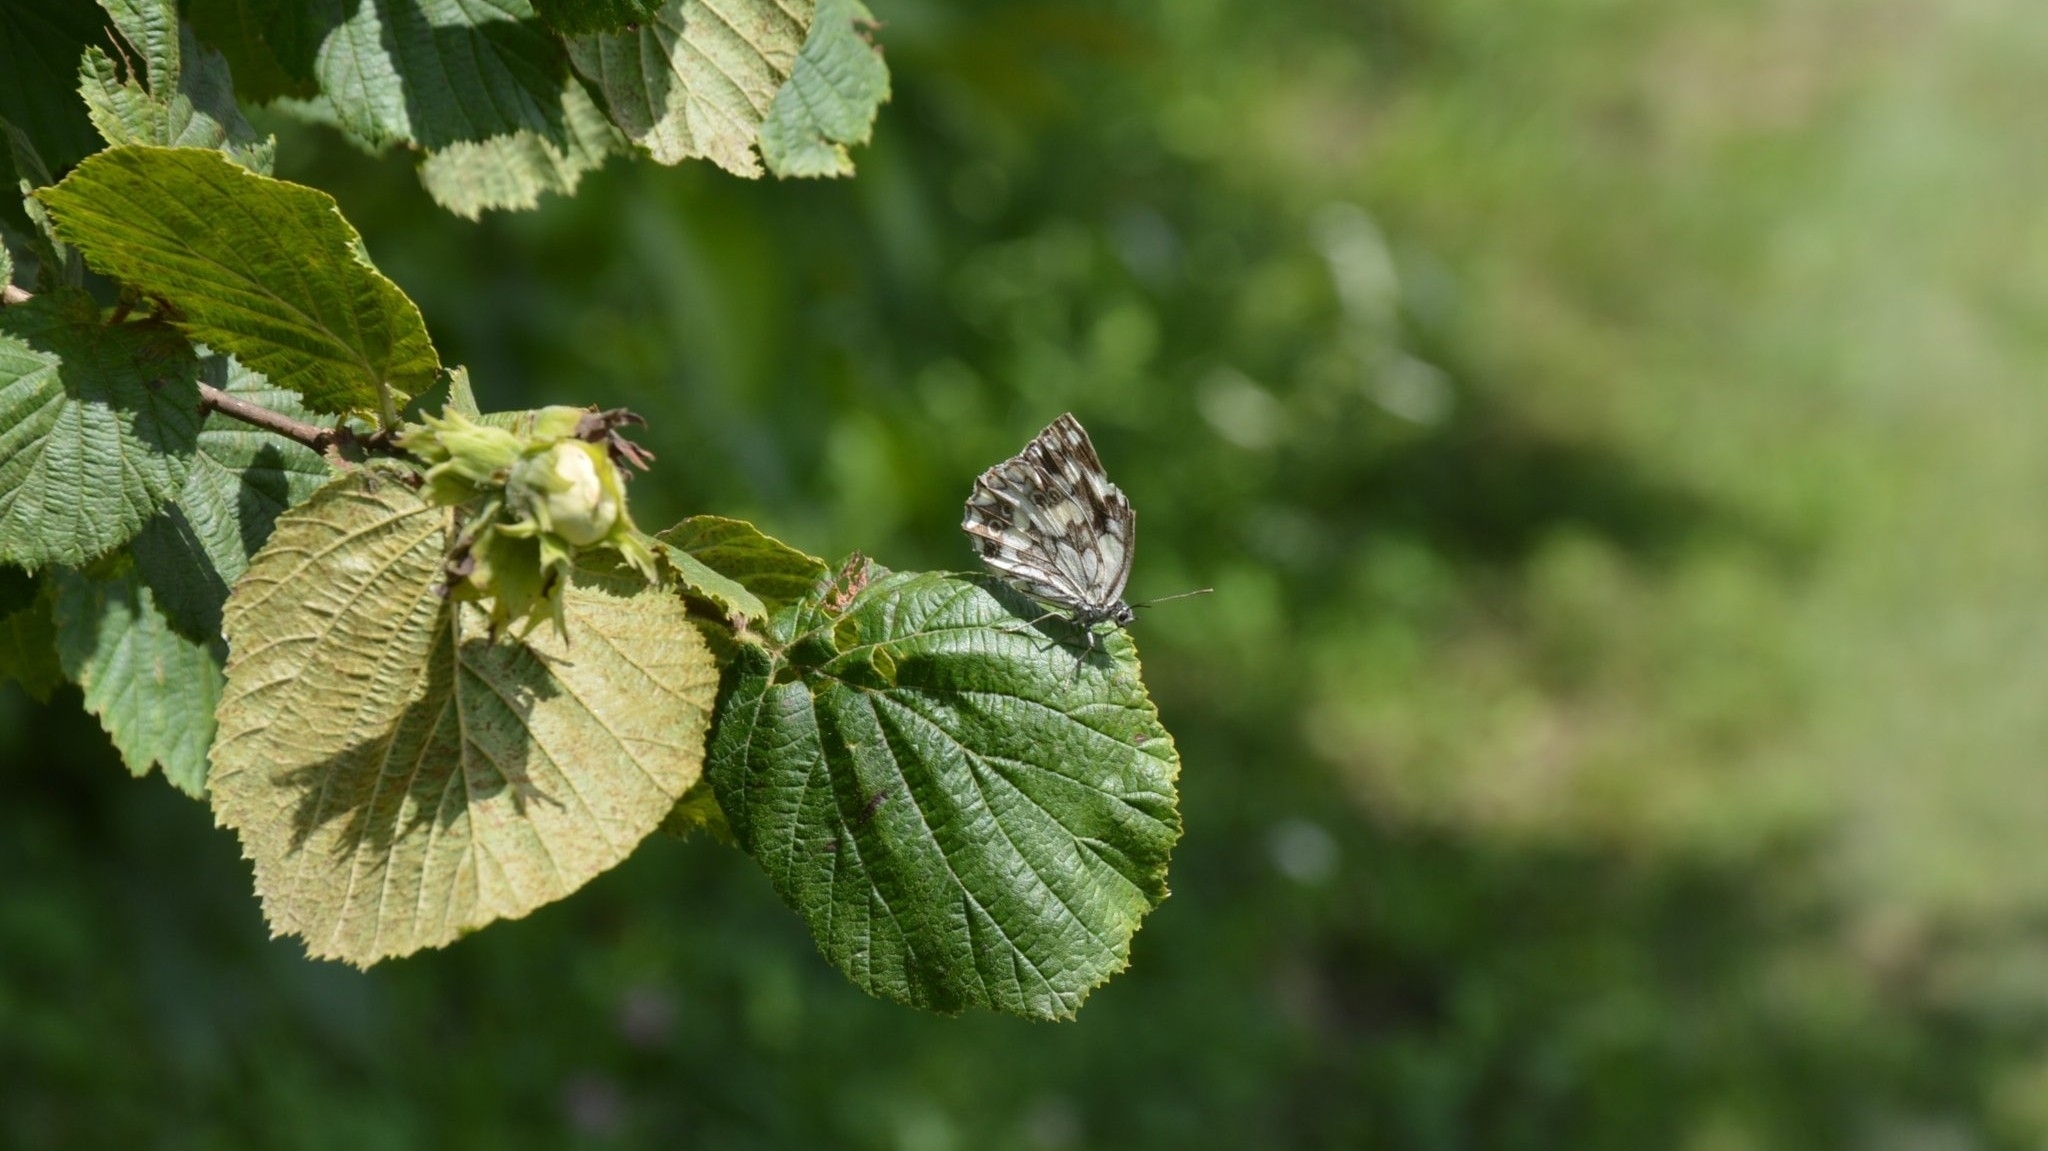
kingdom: Animalia
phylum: Arthropoda
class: Insecta
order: Lepidoptera
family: Nymphalidae
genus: Melanargia
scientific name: Melanargia galathea
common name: Marbled white
